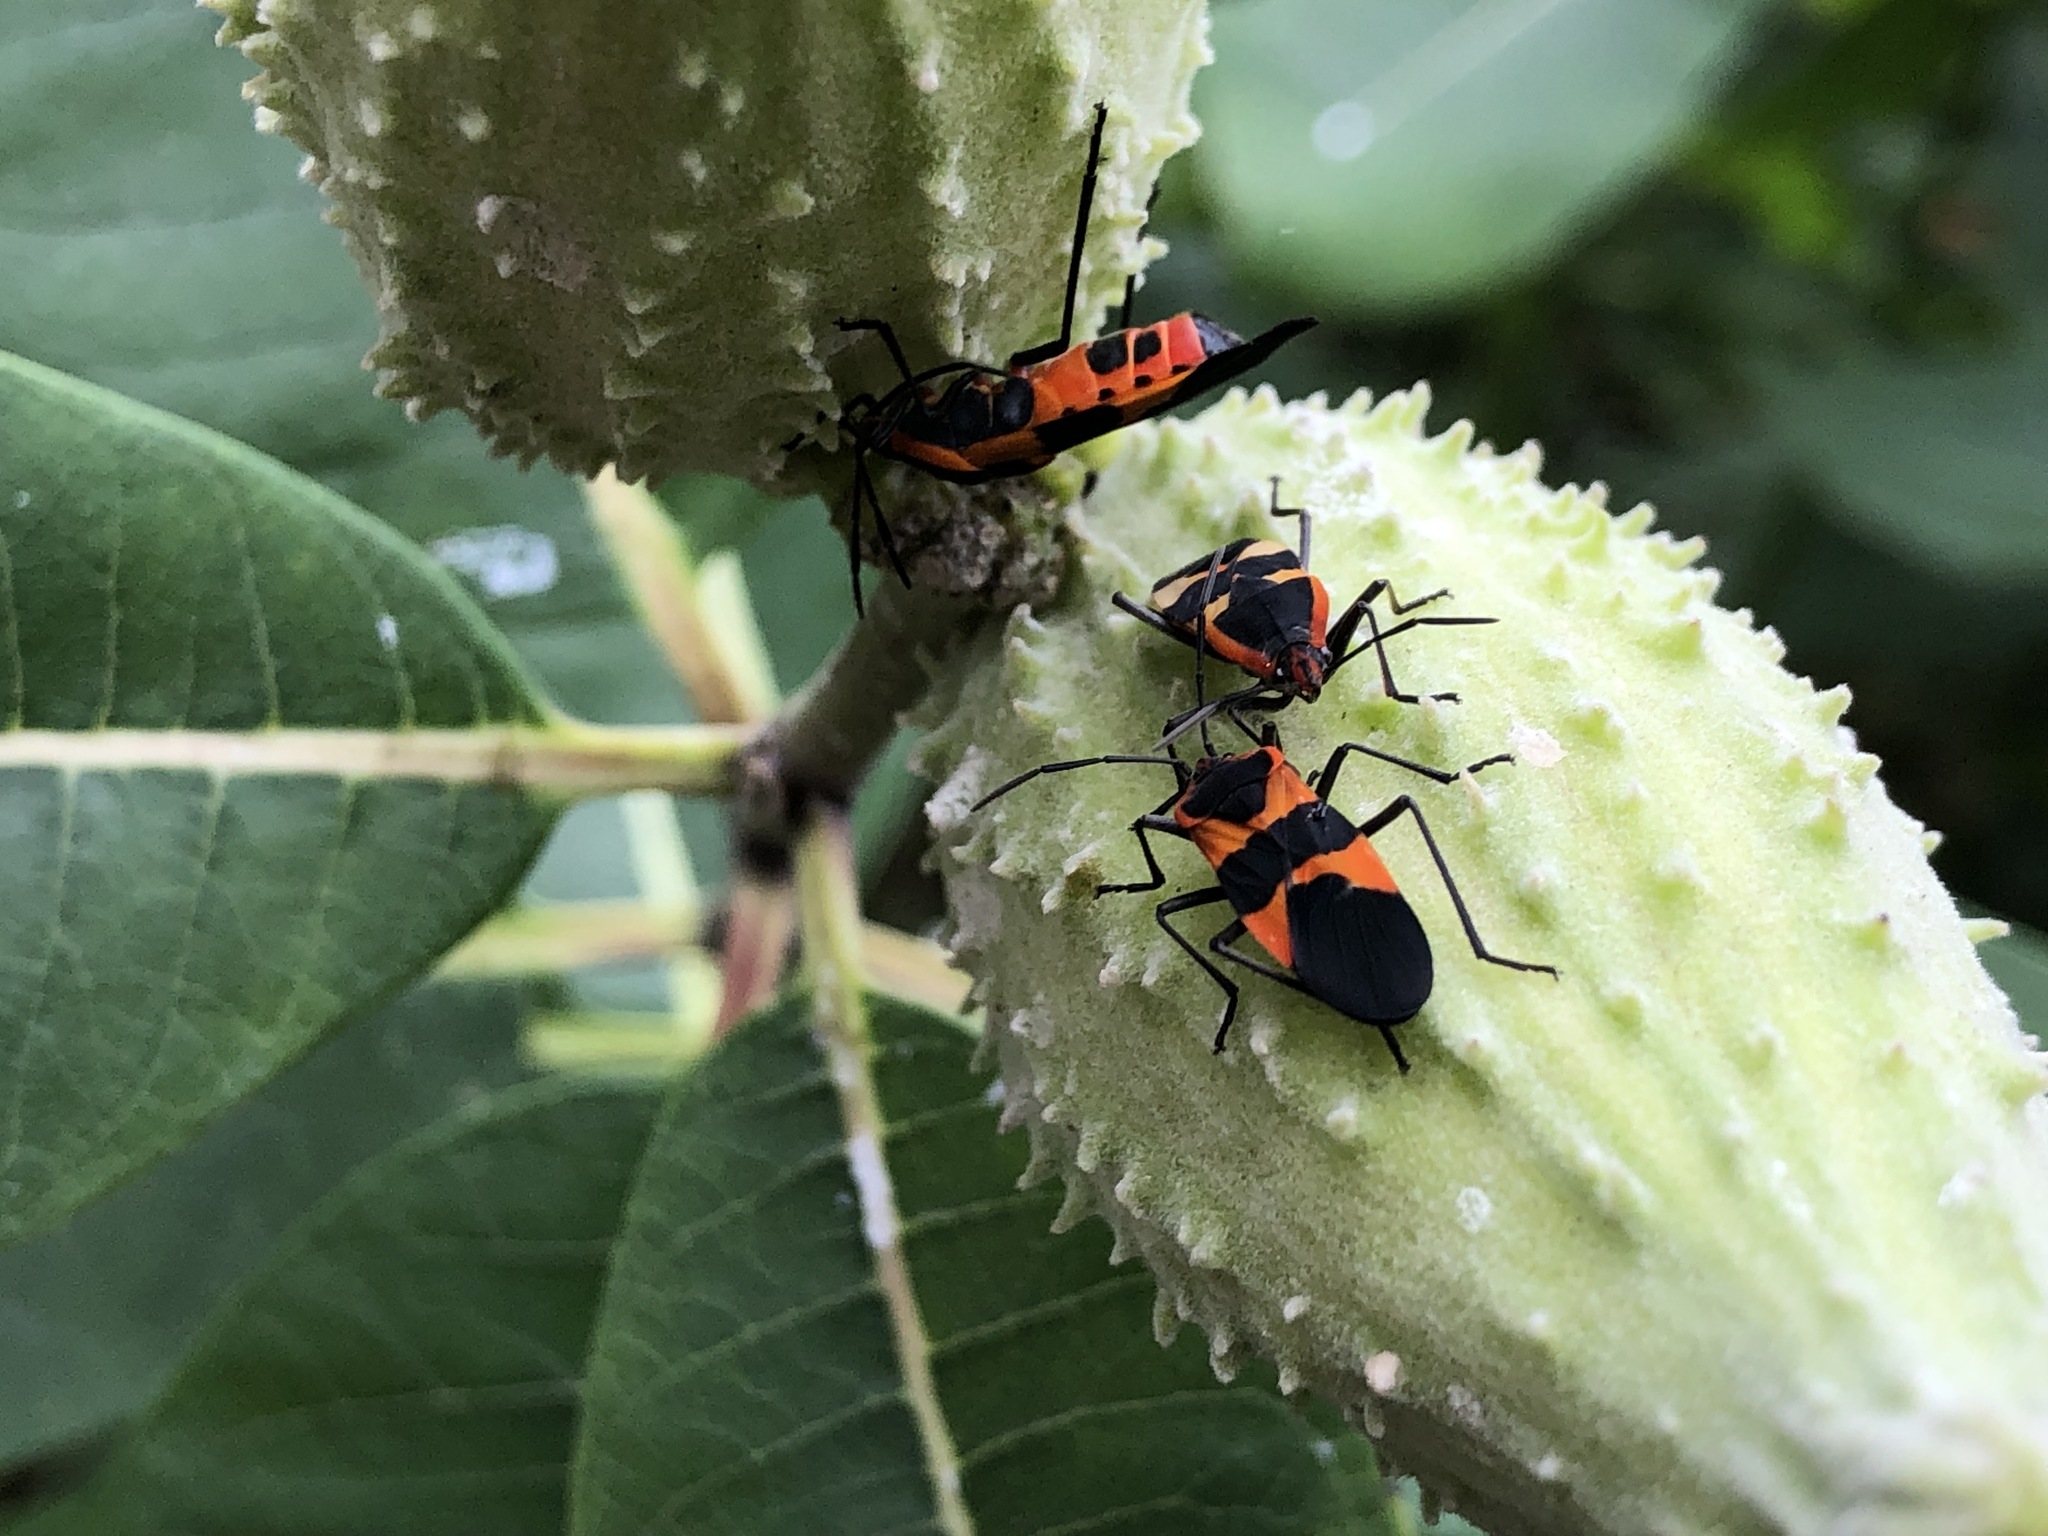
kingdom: Animalia
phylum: Arthropoda
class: Insecta
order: Hemiptera
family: Lygaeidae
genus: Oncopeltus
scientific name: Oncopeltus fasciatus
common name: Large milkweed bug
